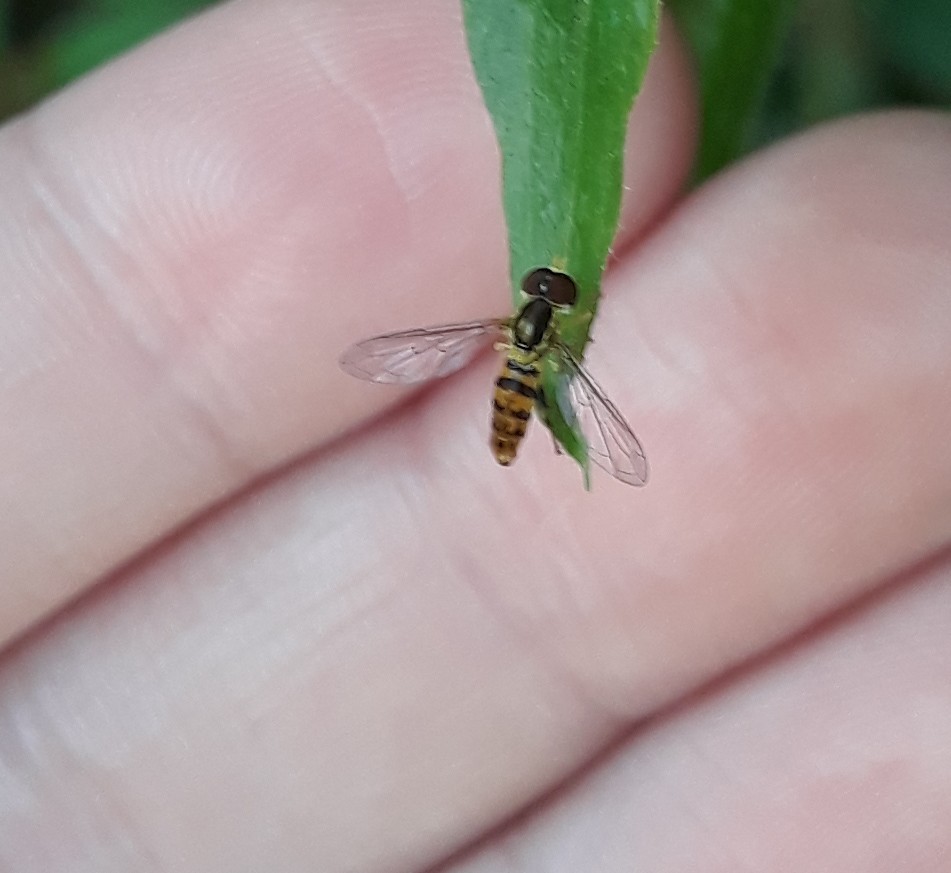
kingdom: Animalia
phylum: Arthropoda
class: Insecta
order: Diptera
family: Syrphidae
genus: Toxomerus
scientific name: Toxomerus geminatus
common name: Eastern calligrapher
